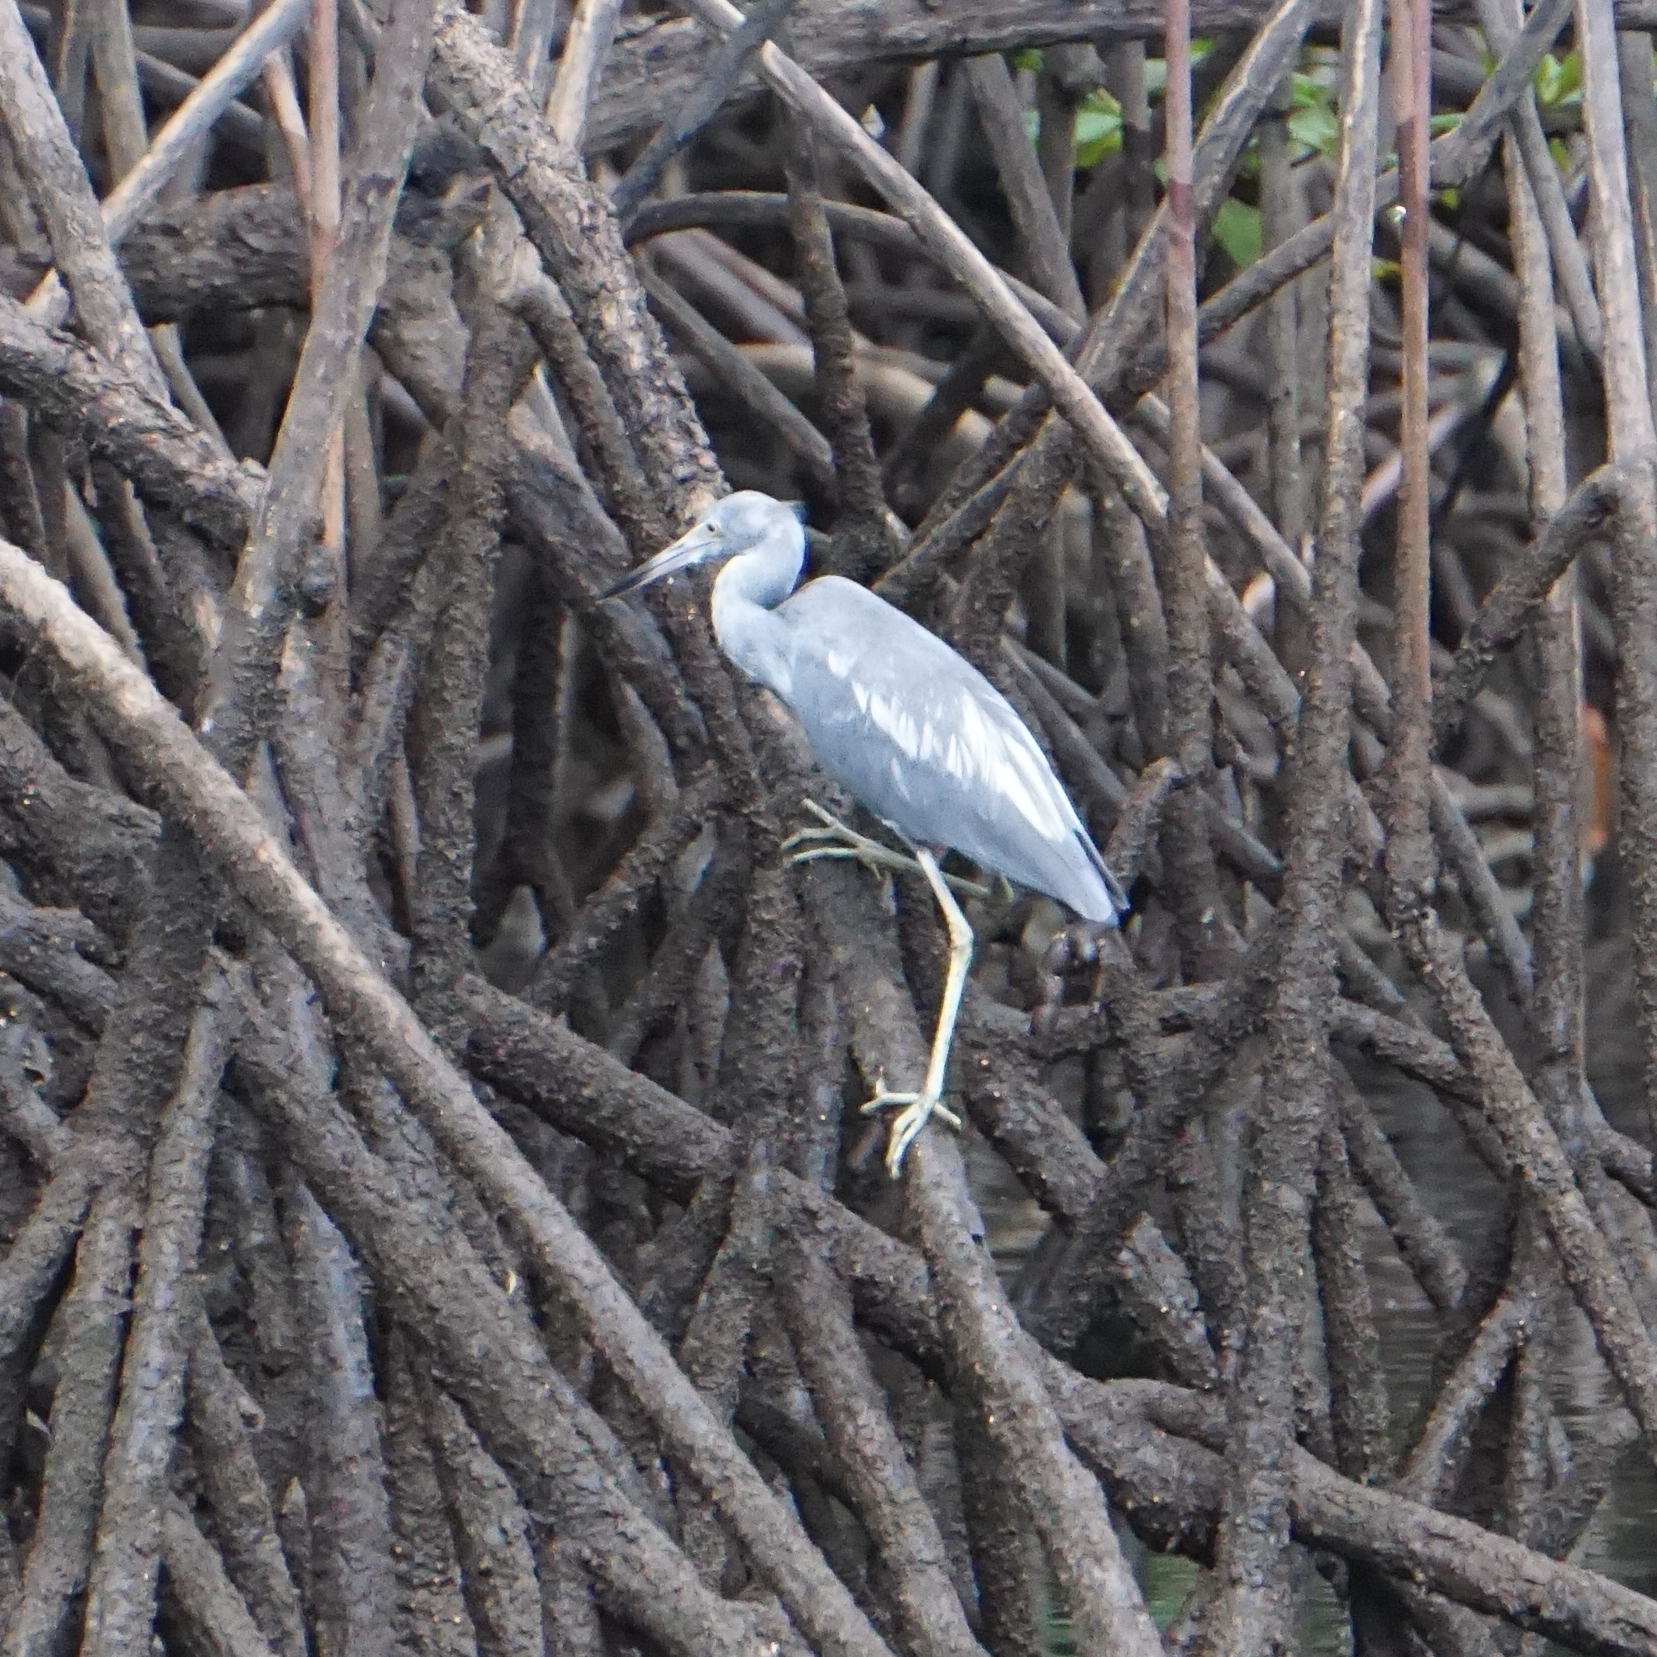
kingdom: Animalia
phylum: Chordata
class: Aves
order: Pelecaniformes
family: Ardeidae
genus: Egretta
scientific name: Egretta caerulea
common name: Little blue heron
